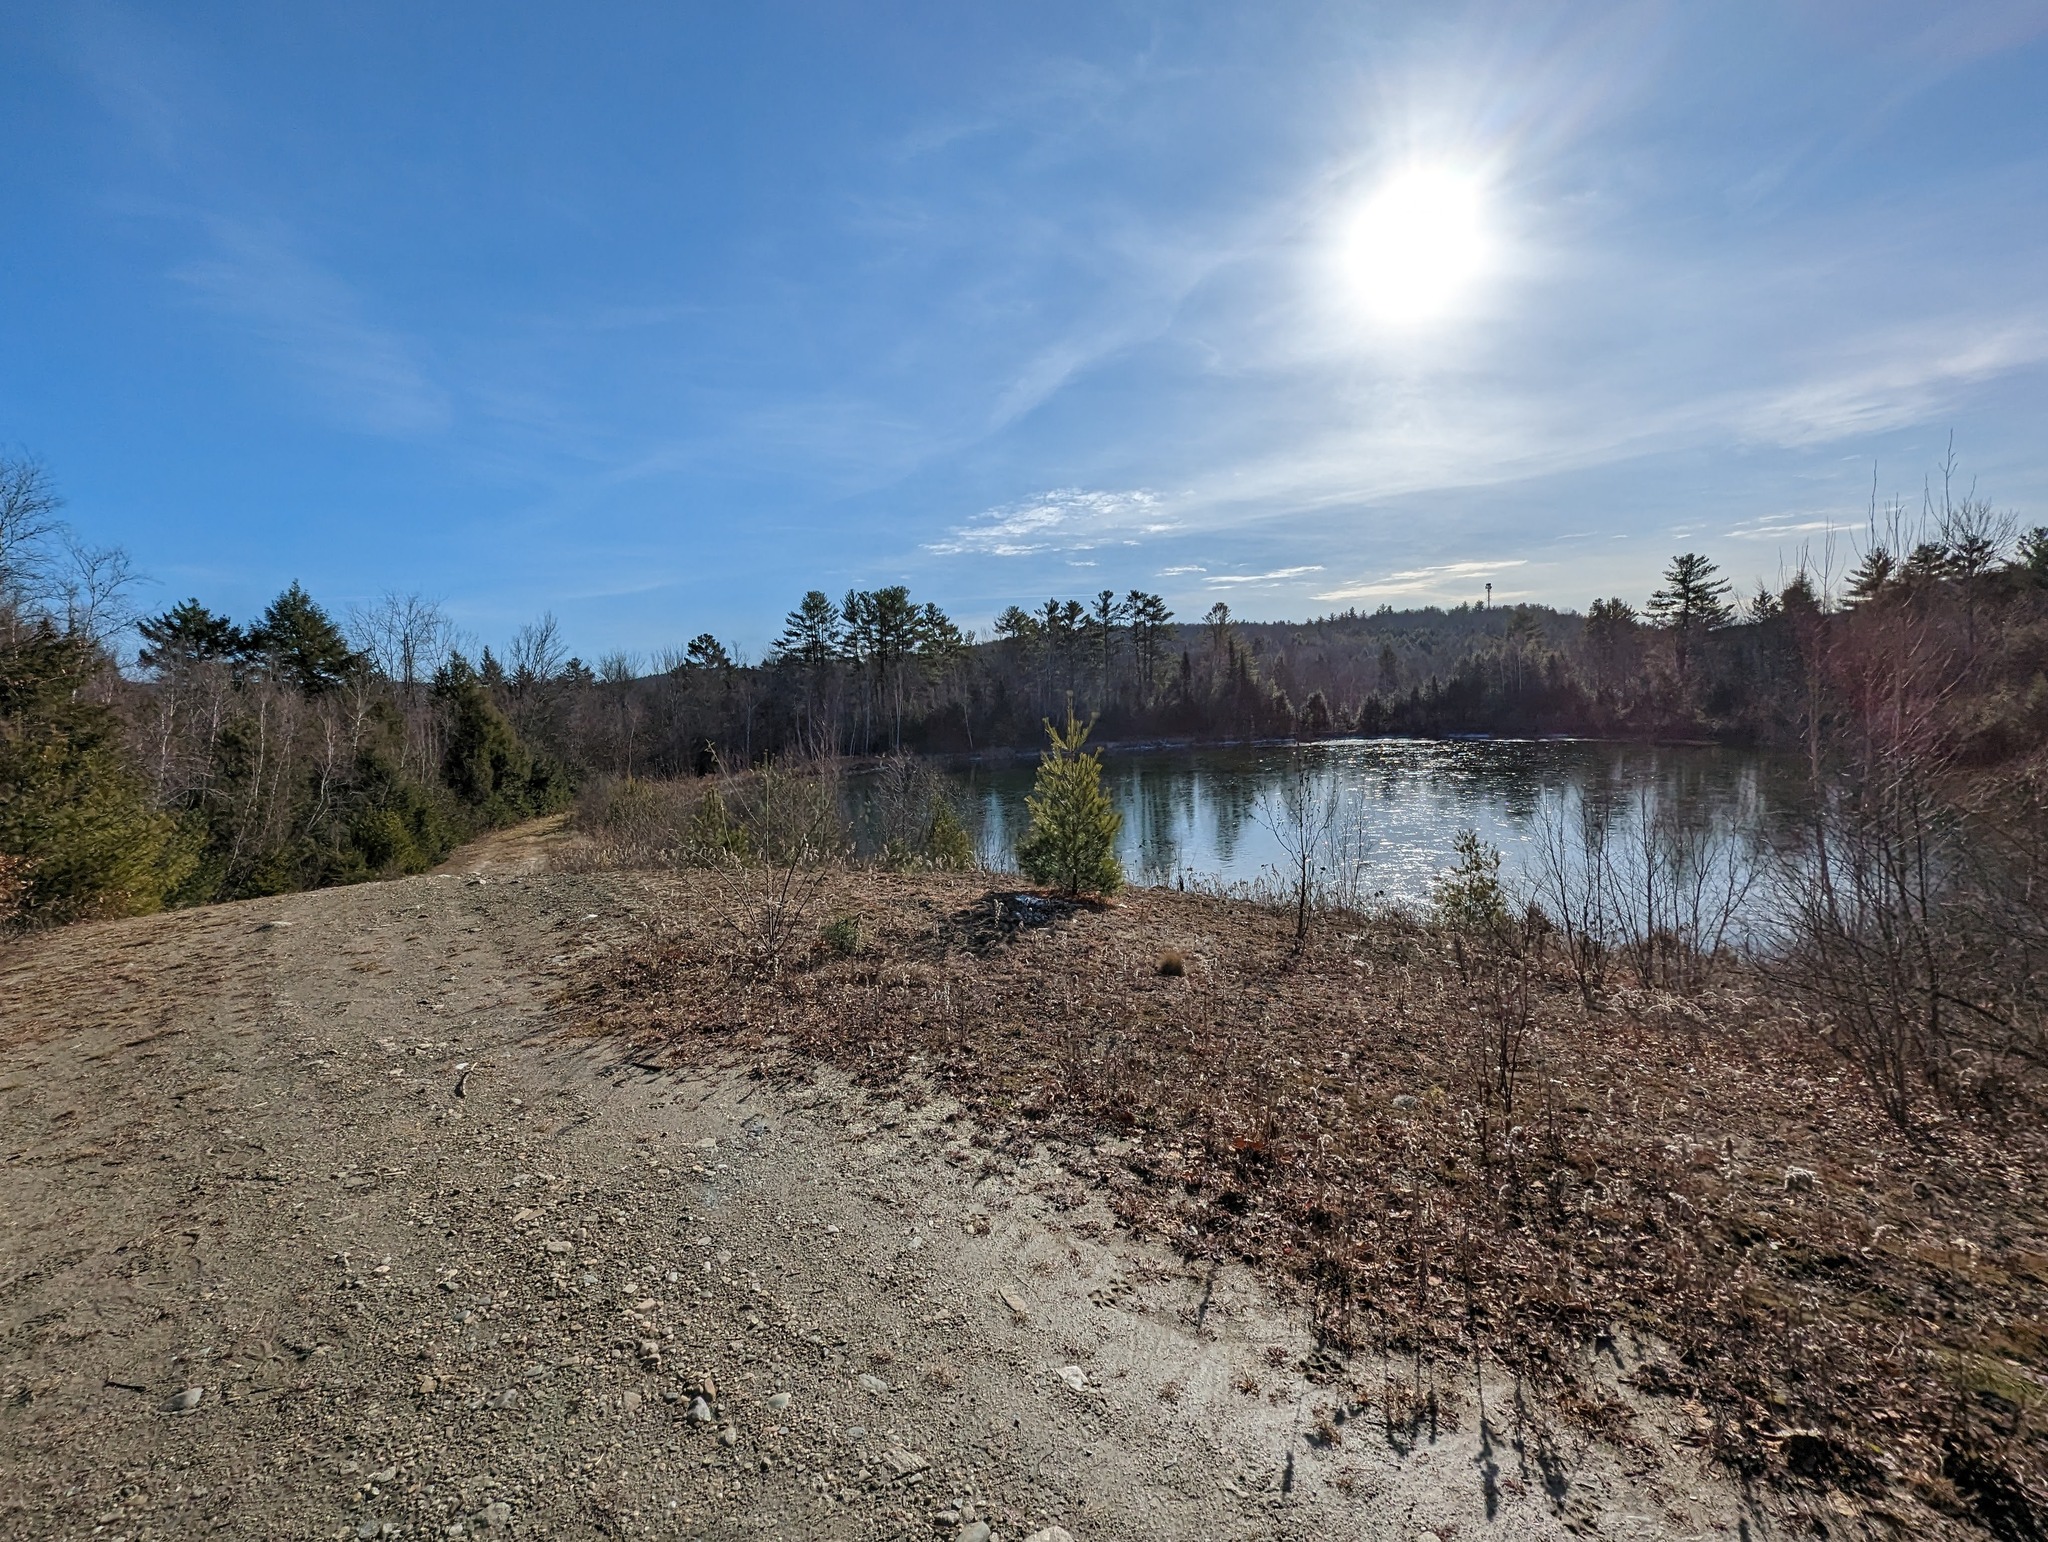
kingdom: Plantae
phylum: Tracheophyta
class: Pinopsida
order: Pinales
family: Pinaceae
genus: Pinus
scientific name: Pinus strobus
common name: Weymouth pine
